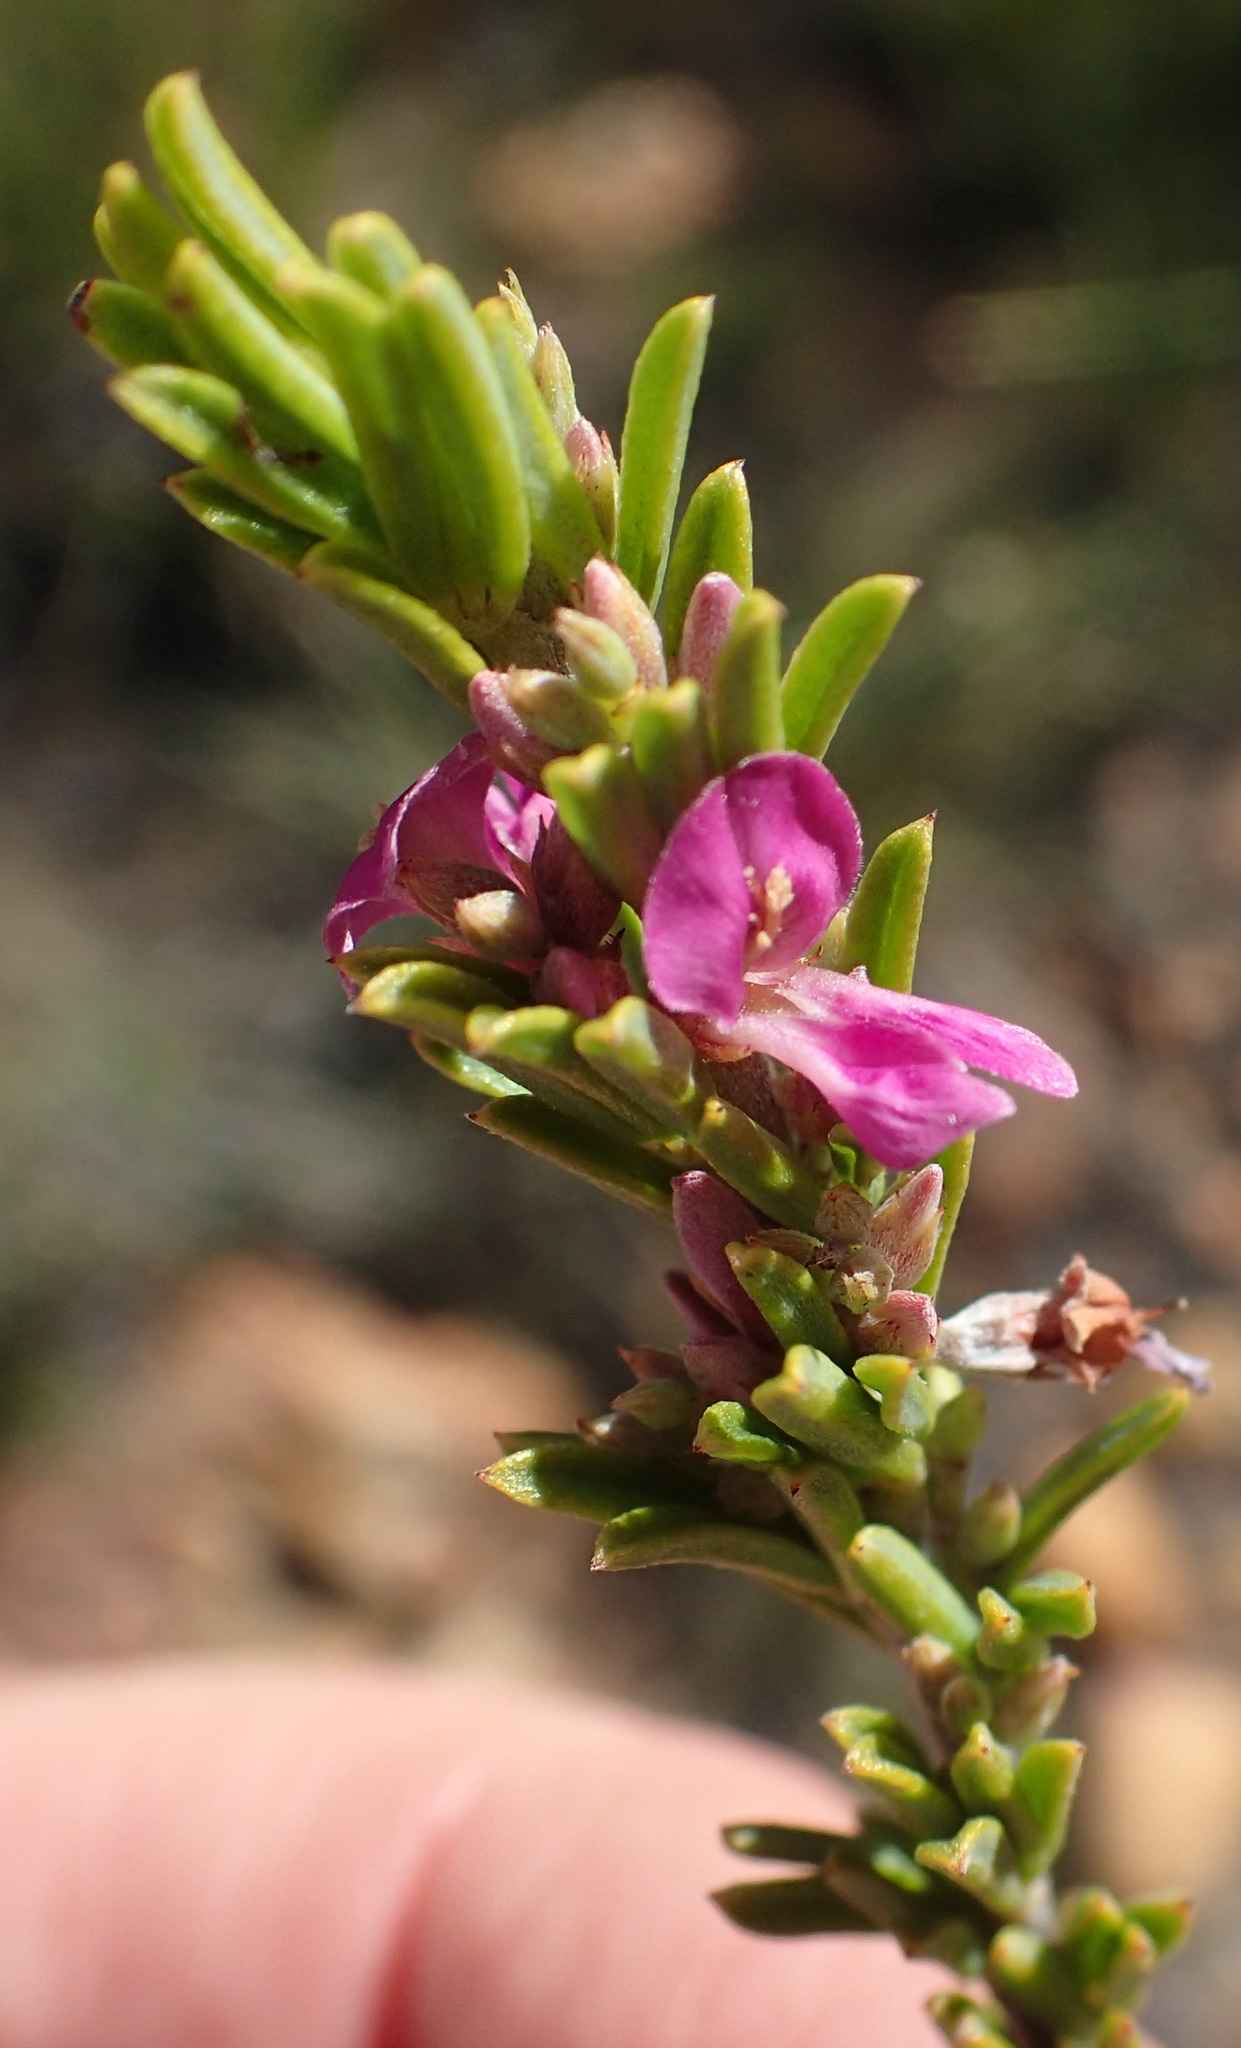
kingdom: Plantae
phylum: Tracheophyta
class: Magnoliopsida
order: Fabales
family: Fabaceae
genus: Indigofera
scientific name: Indigofera pappei
